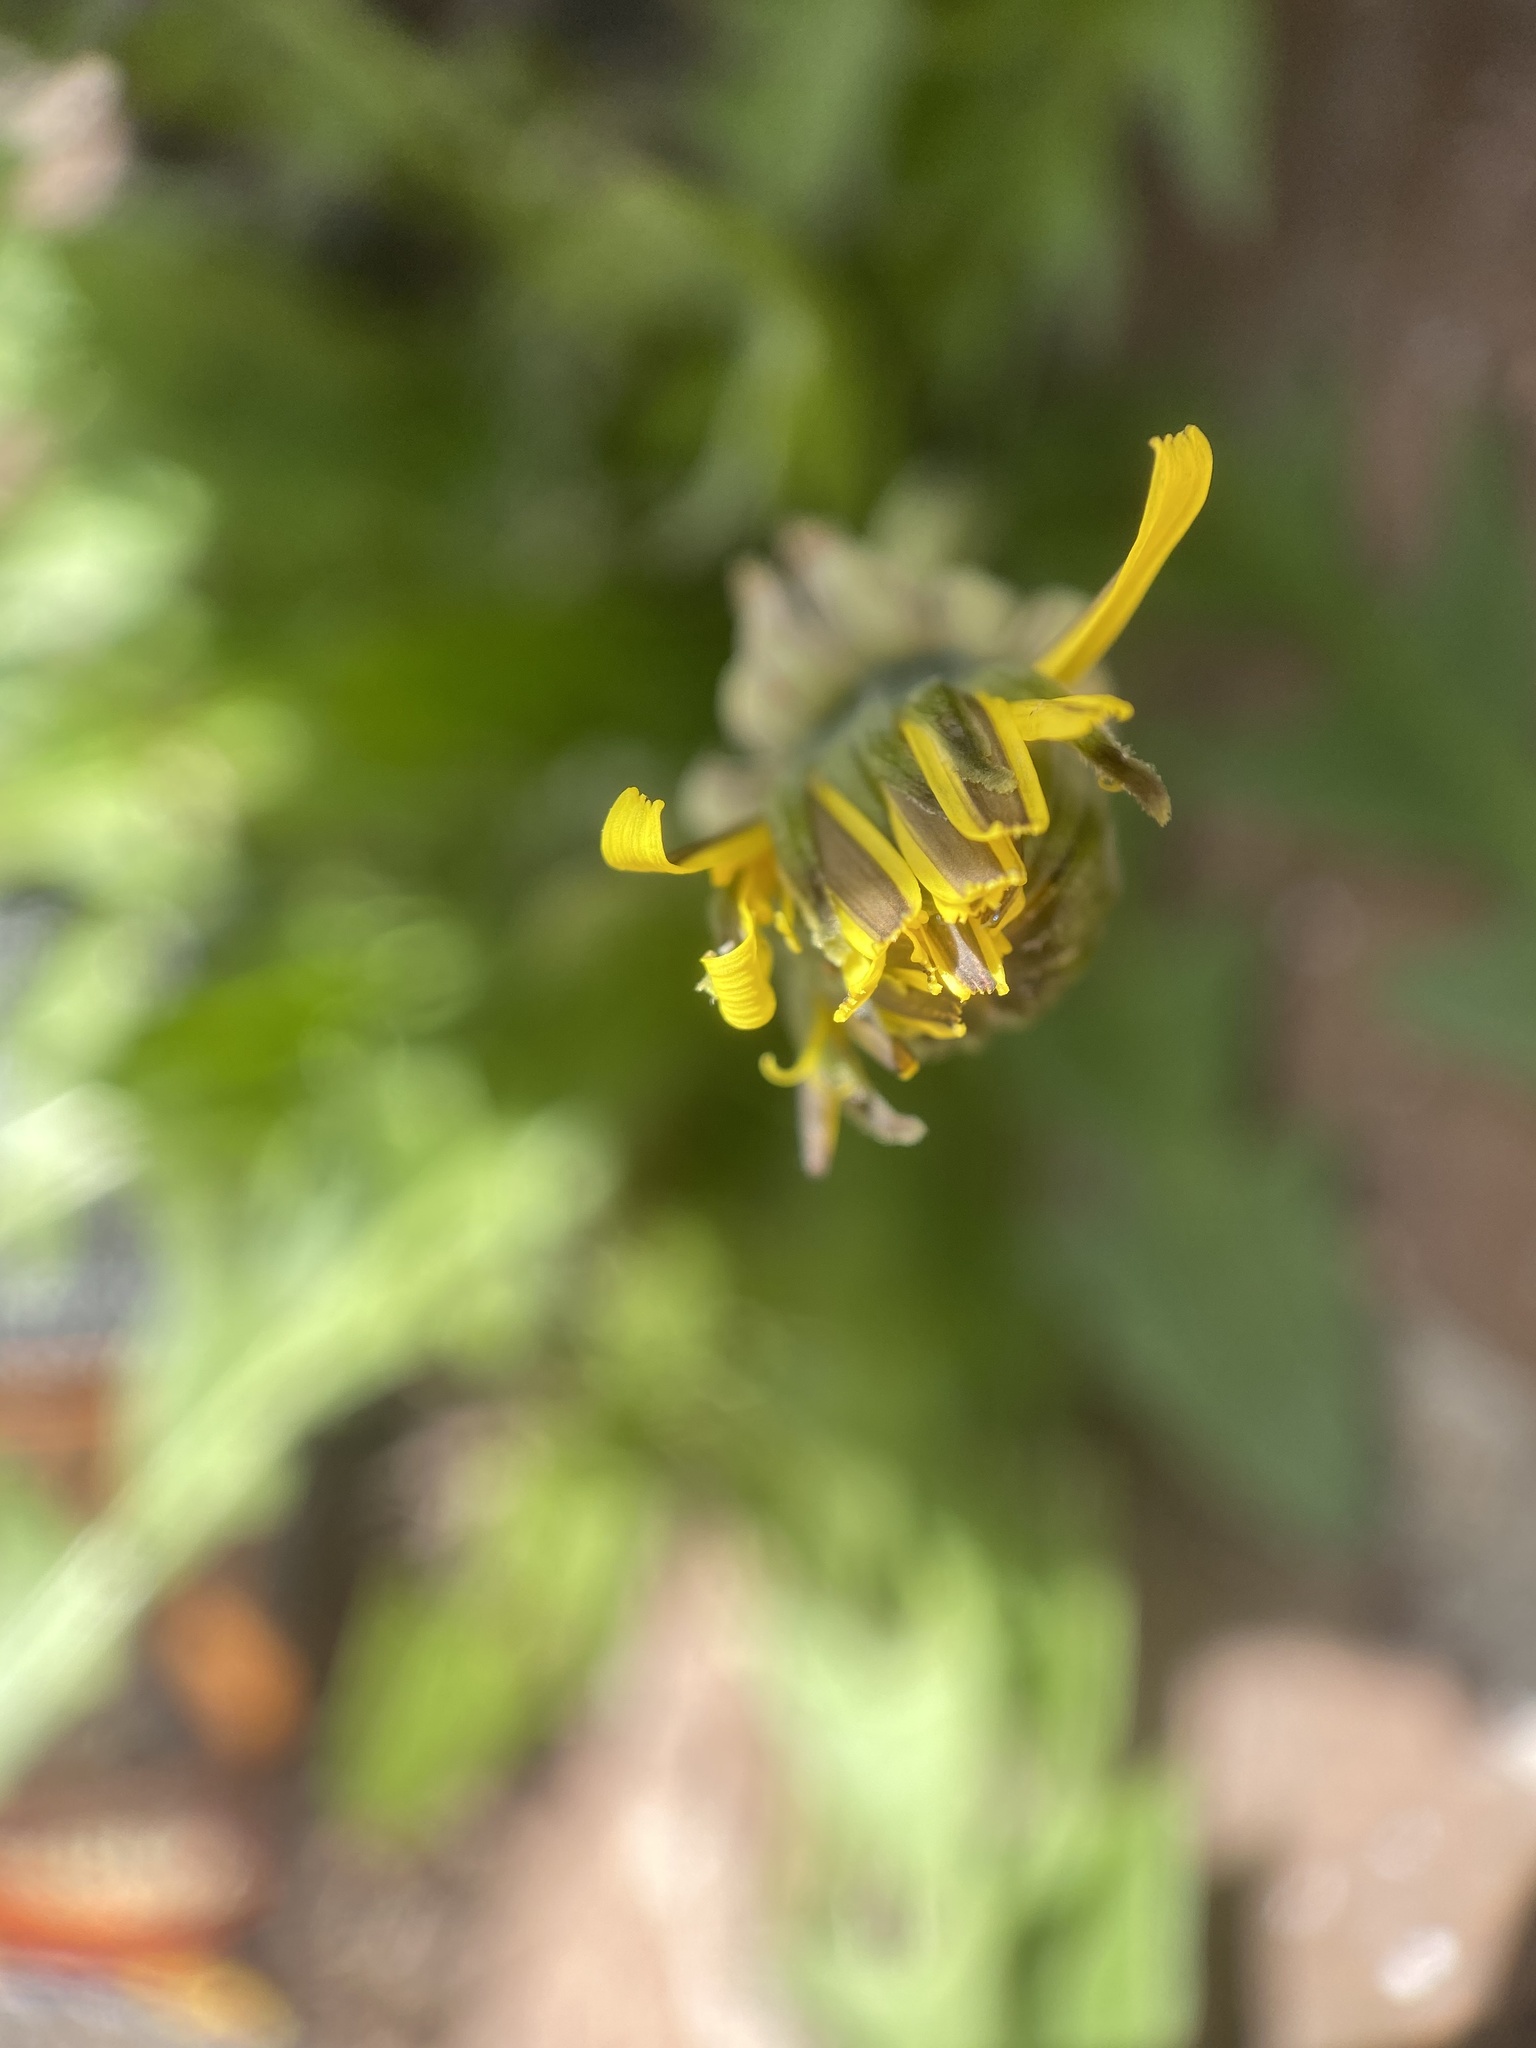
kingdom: Plantae
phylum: Tracheophyta
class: Magnoliopsida
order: Asterales
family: Asteraceae
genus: Taraxacum
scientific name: Taraxacum officinale
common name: Common dandelion
